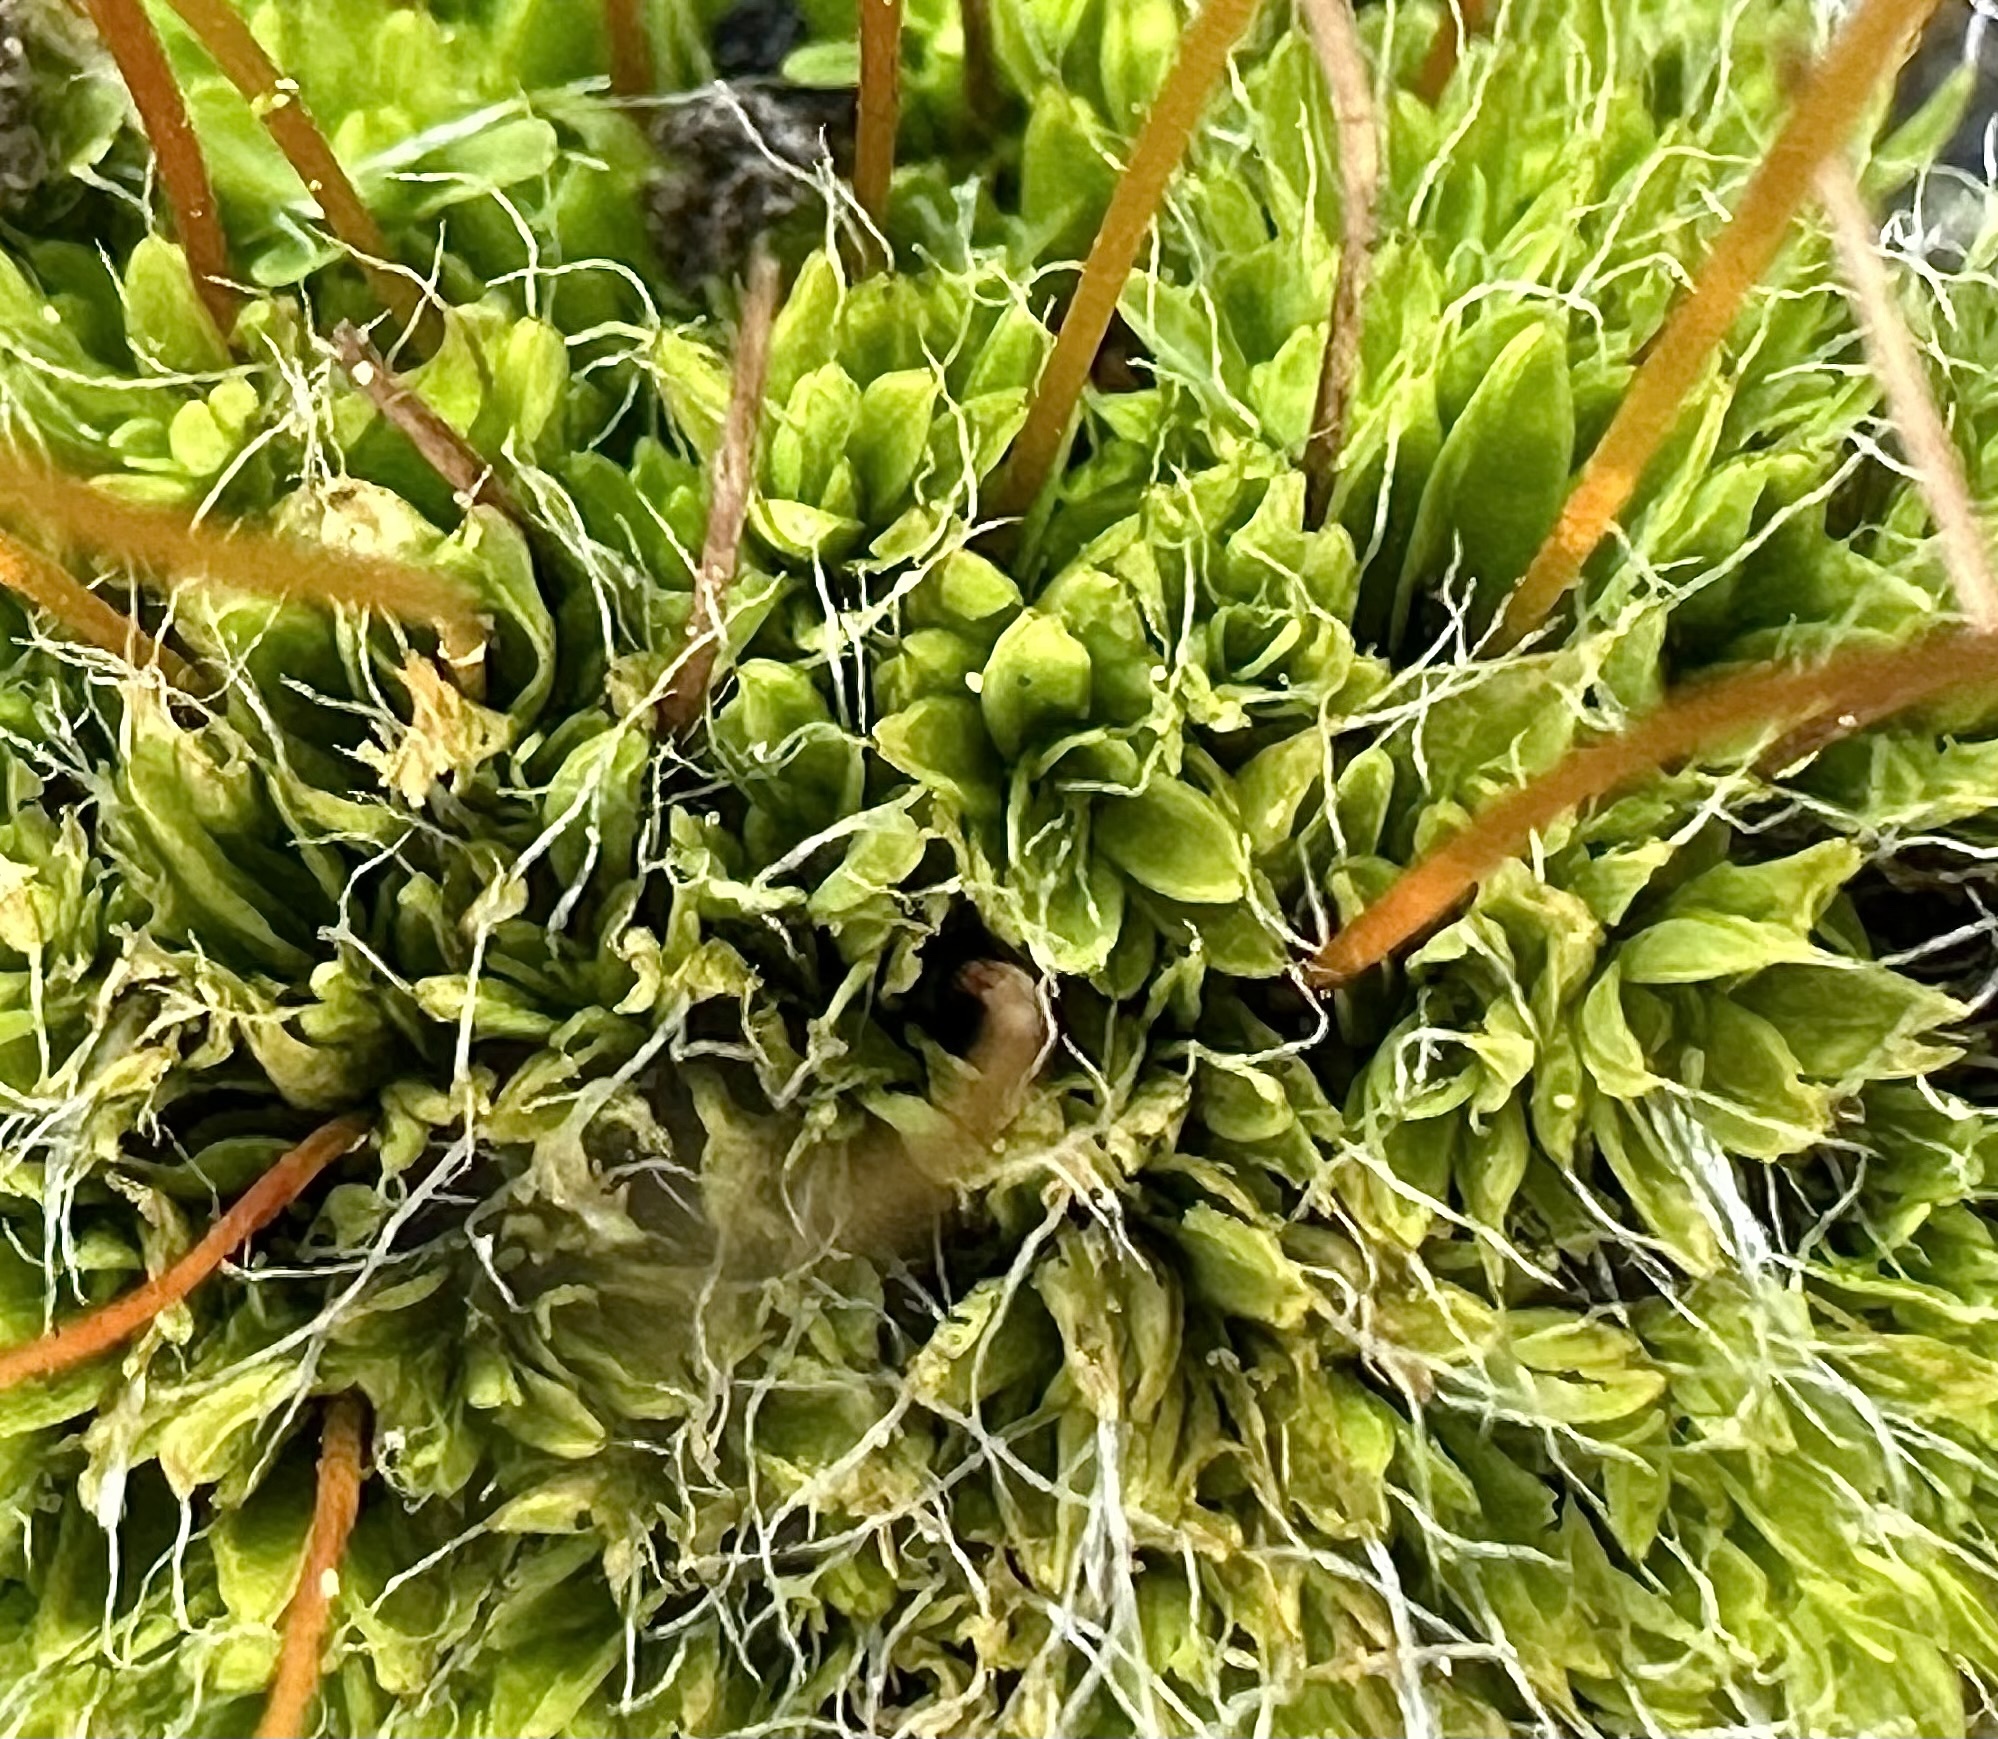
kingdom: Plantae
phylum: Bryophyta
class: Bryopsida
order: Pottiales
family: Pottiaceae
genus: Tortula
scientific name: Tortula muralis
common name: Wall screw-moss
